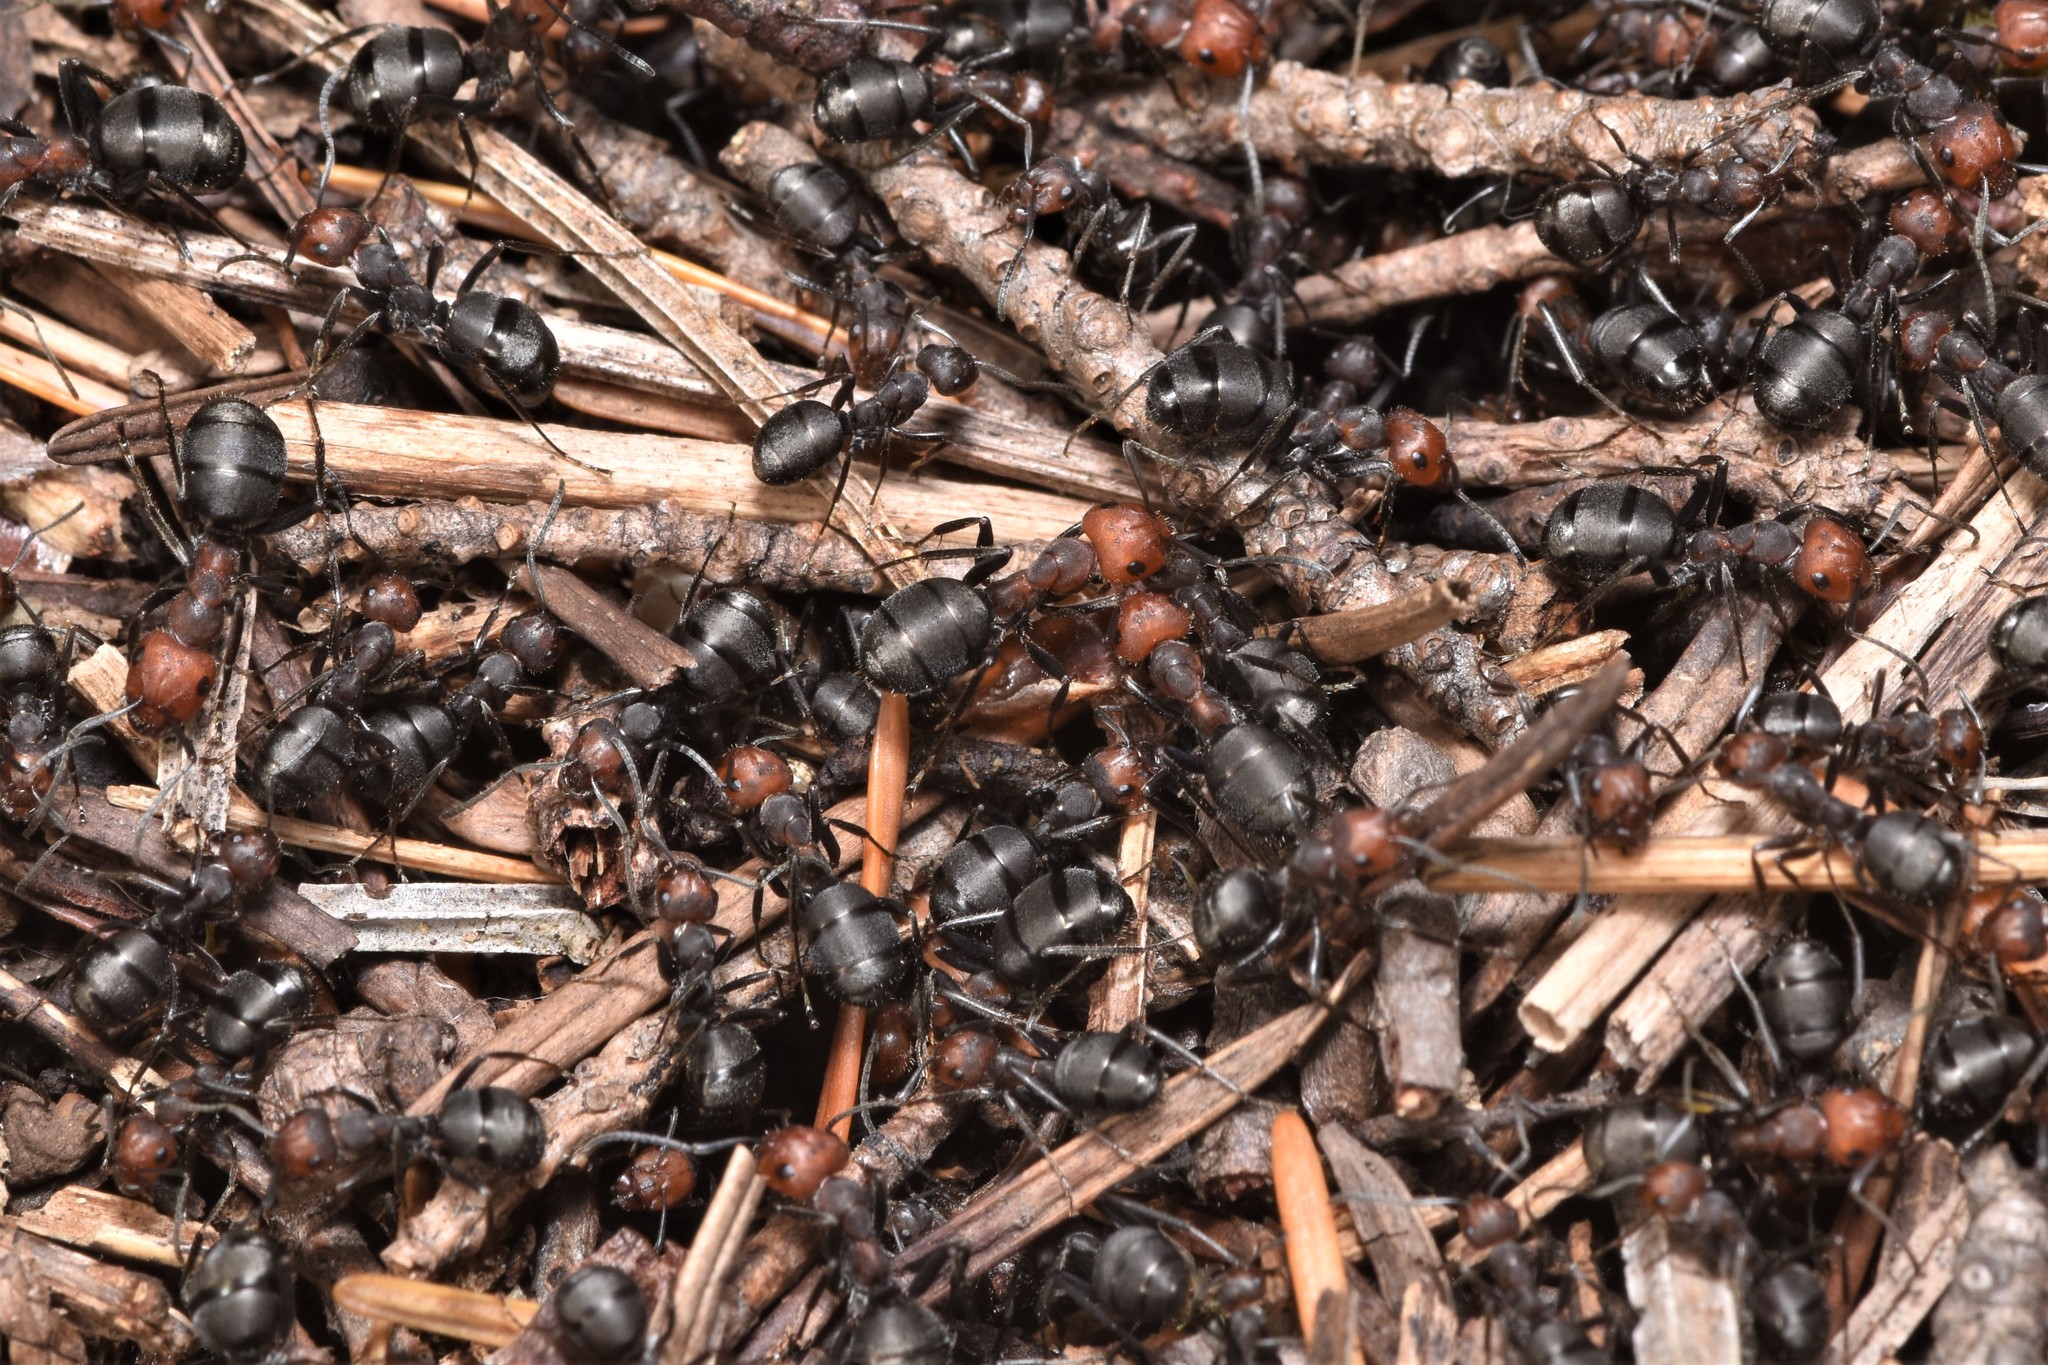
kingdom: Animalia
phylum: Arthropoda
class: Insecta
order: Hymenoptera
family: Formicidae
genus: Formica
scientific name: Formica obscuripes
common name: Western thatching ant
